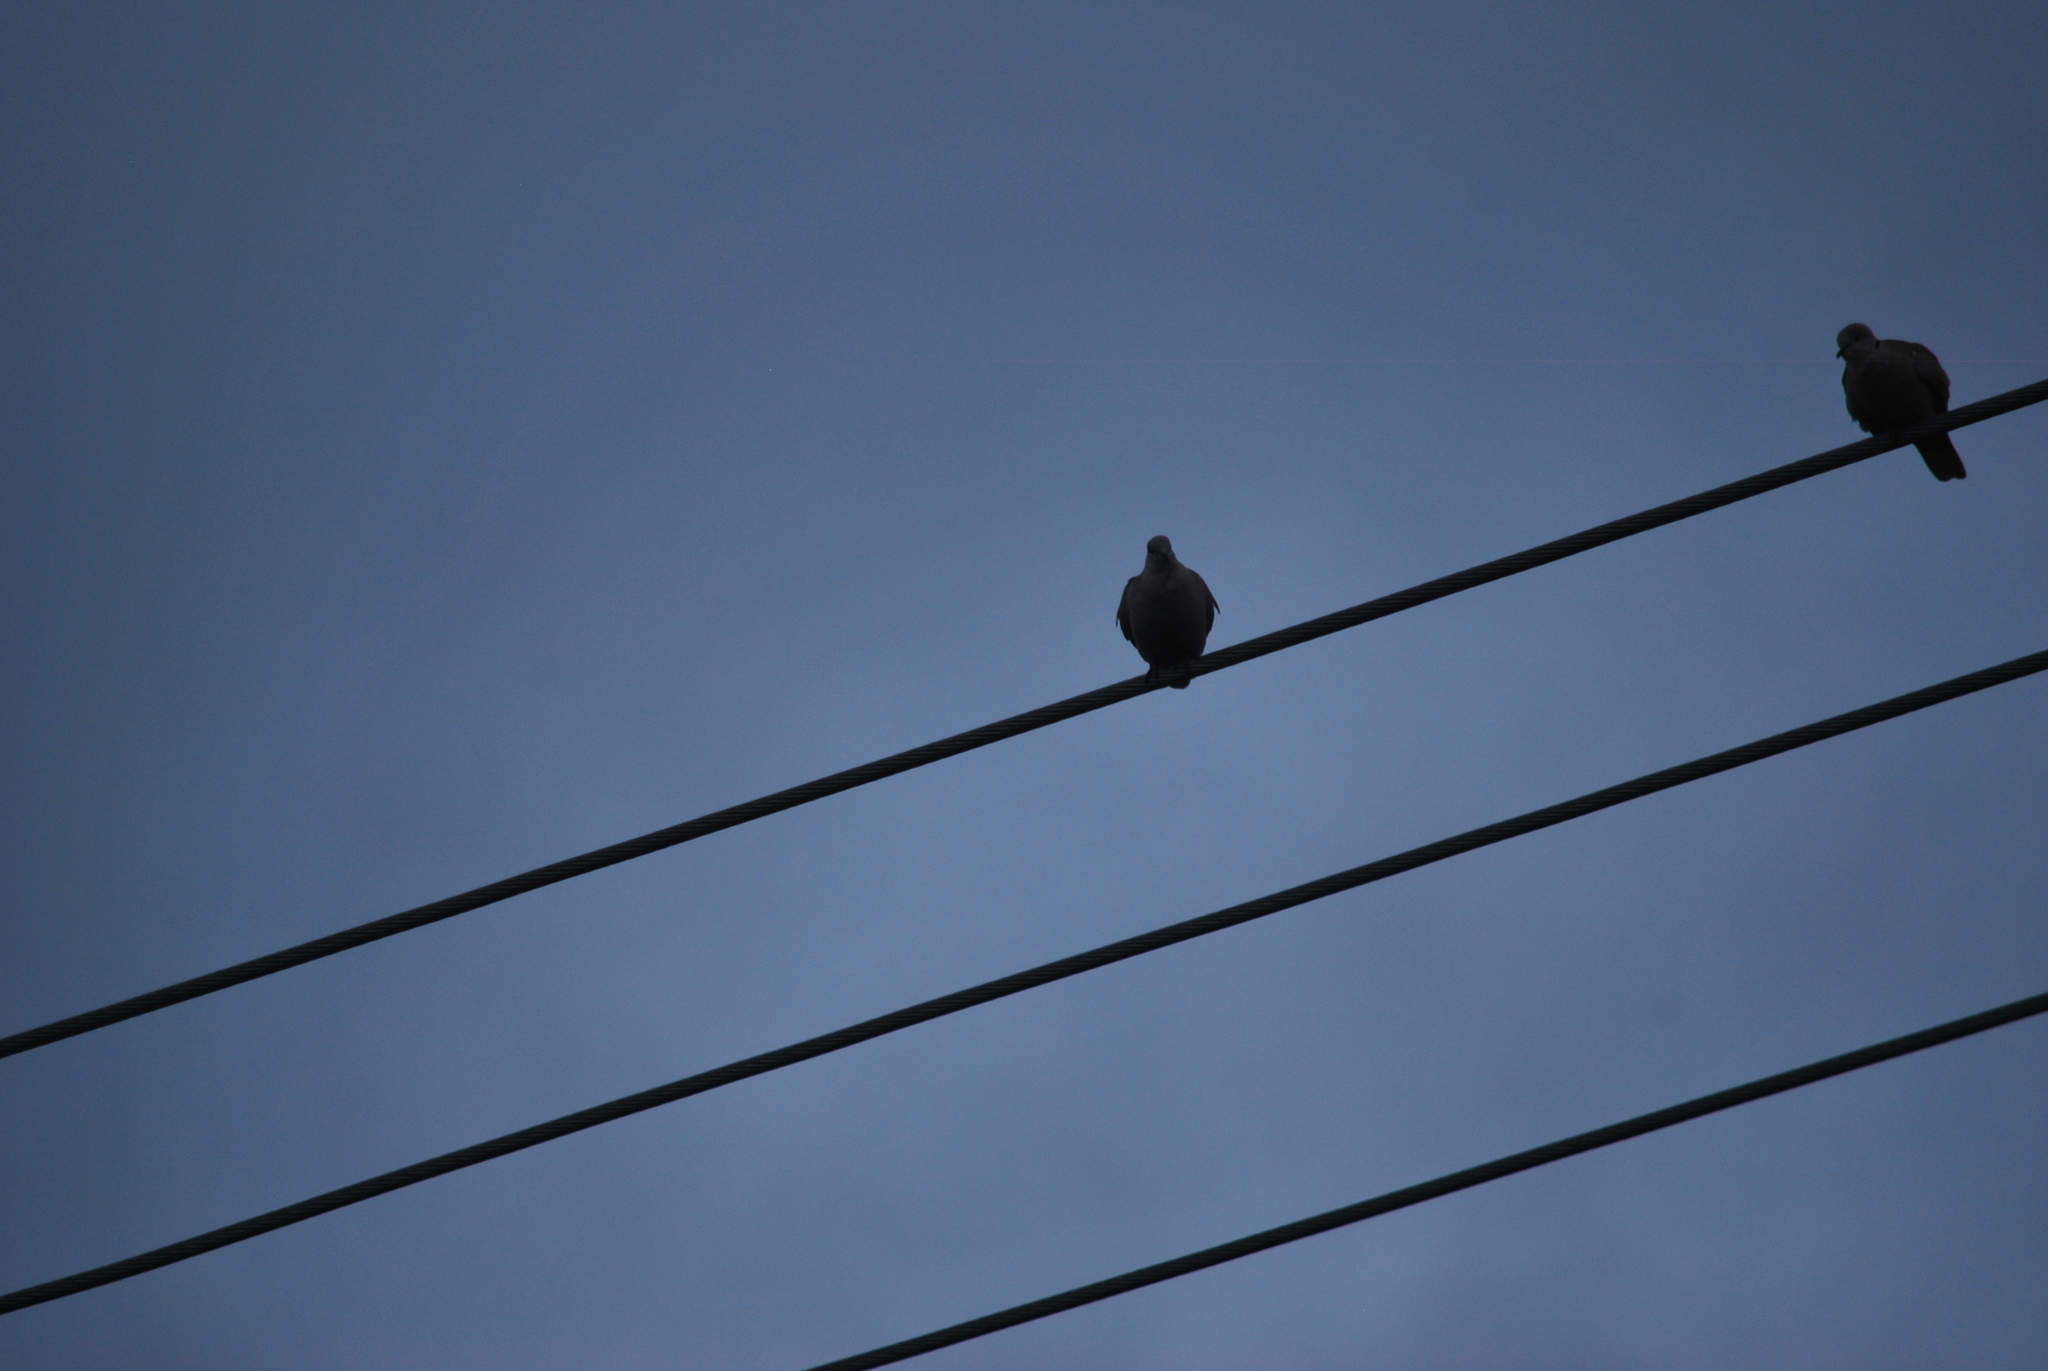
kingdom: Animalia
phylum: Chordata
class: Aves
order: Columbiformes
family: Columbidae
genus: Streptopelia
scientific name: Streptopelia decaocto
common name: Eurasian collared dove
